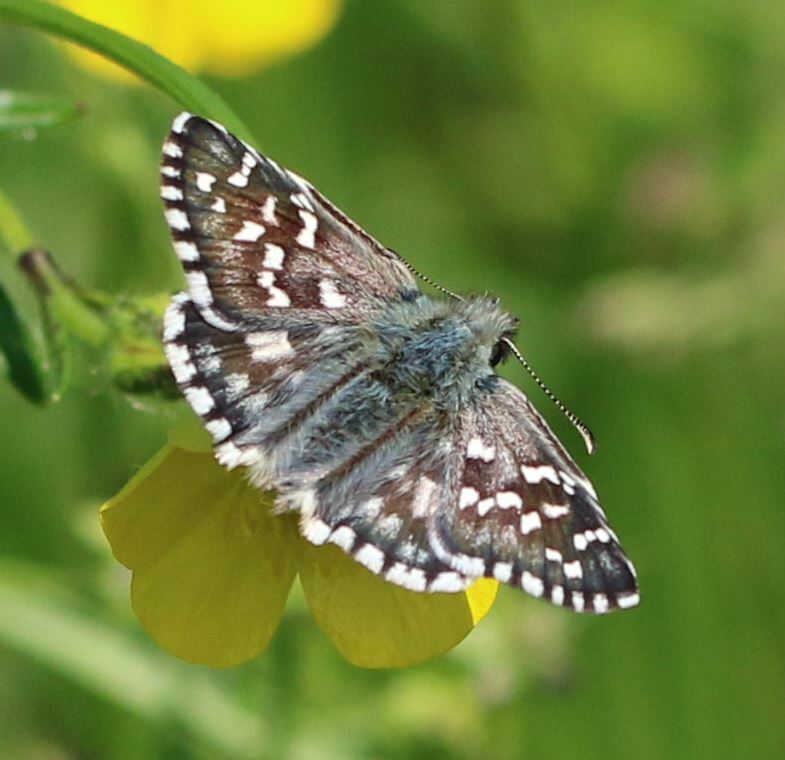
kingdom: Animalia
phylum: Arthropoda
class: Insecta
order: Lepidoptera
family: Hesperiidae
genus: Pyrgus
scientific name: Pyrgus armoricanus
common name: Oberthür's grizzled skipper
